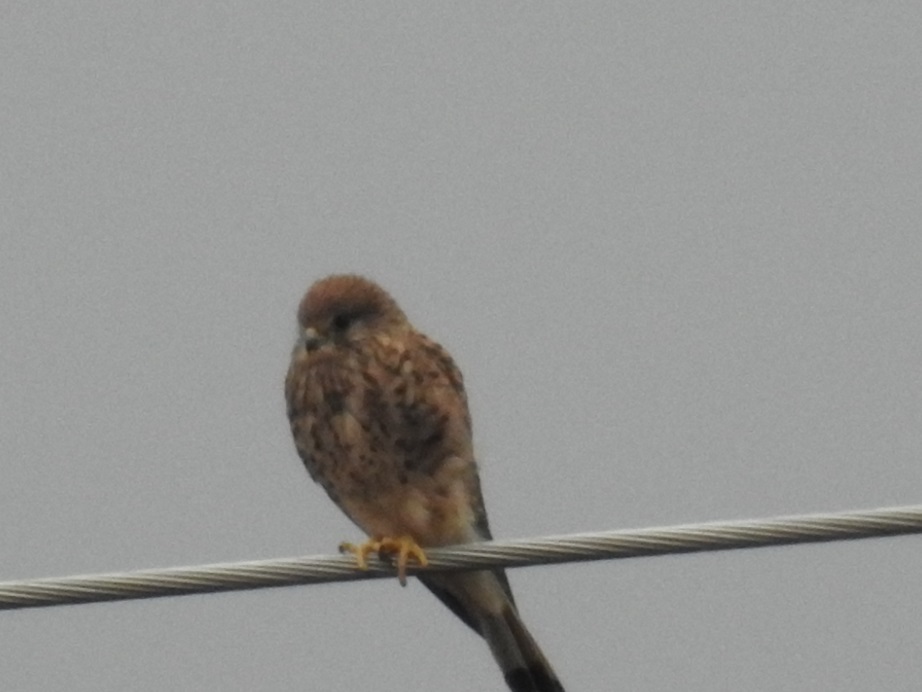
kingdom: Animalia
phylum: Chordata
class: Aves
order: Falconiformes
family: Falconidae
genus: Falco
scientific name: Falco tinnunculus
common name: Common kestrel
